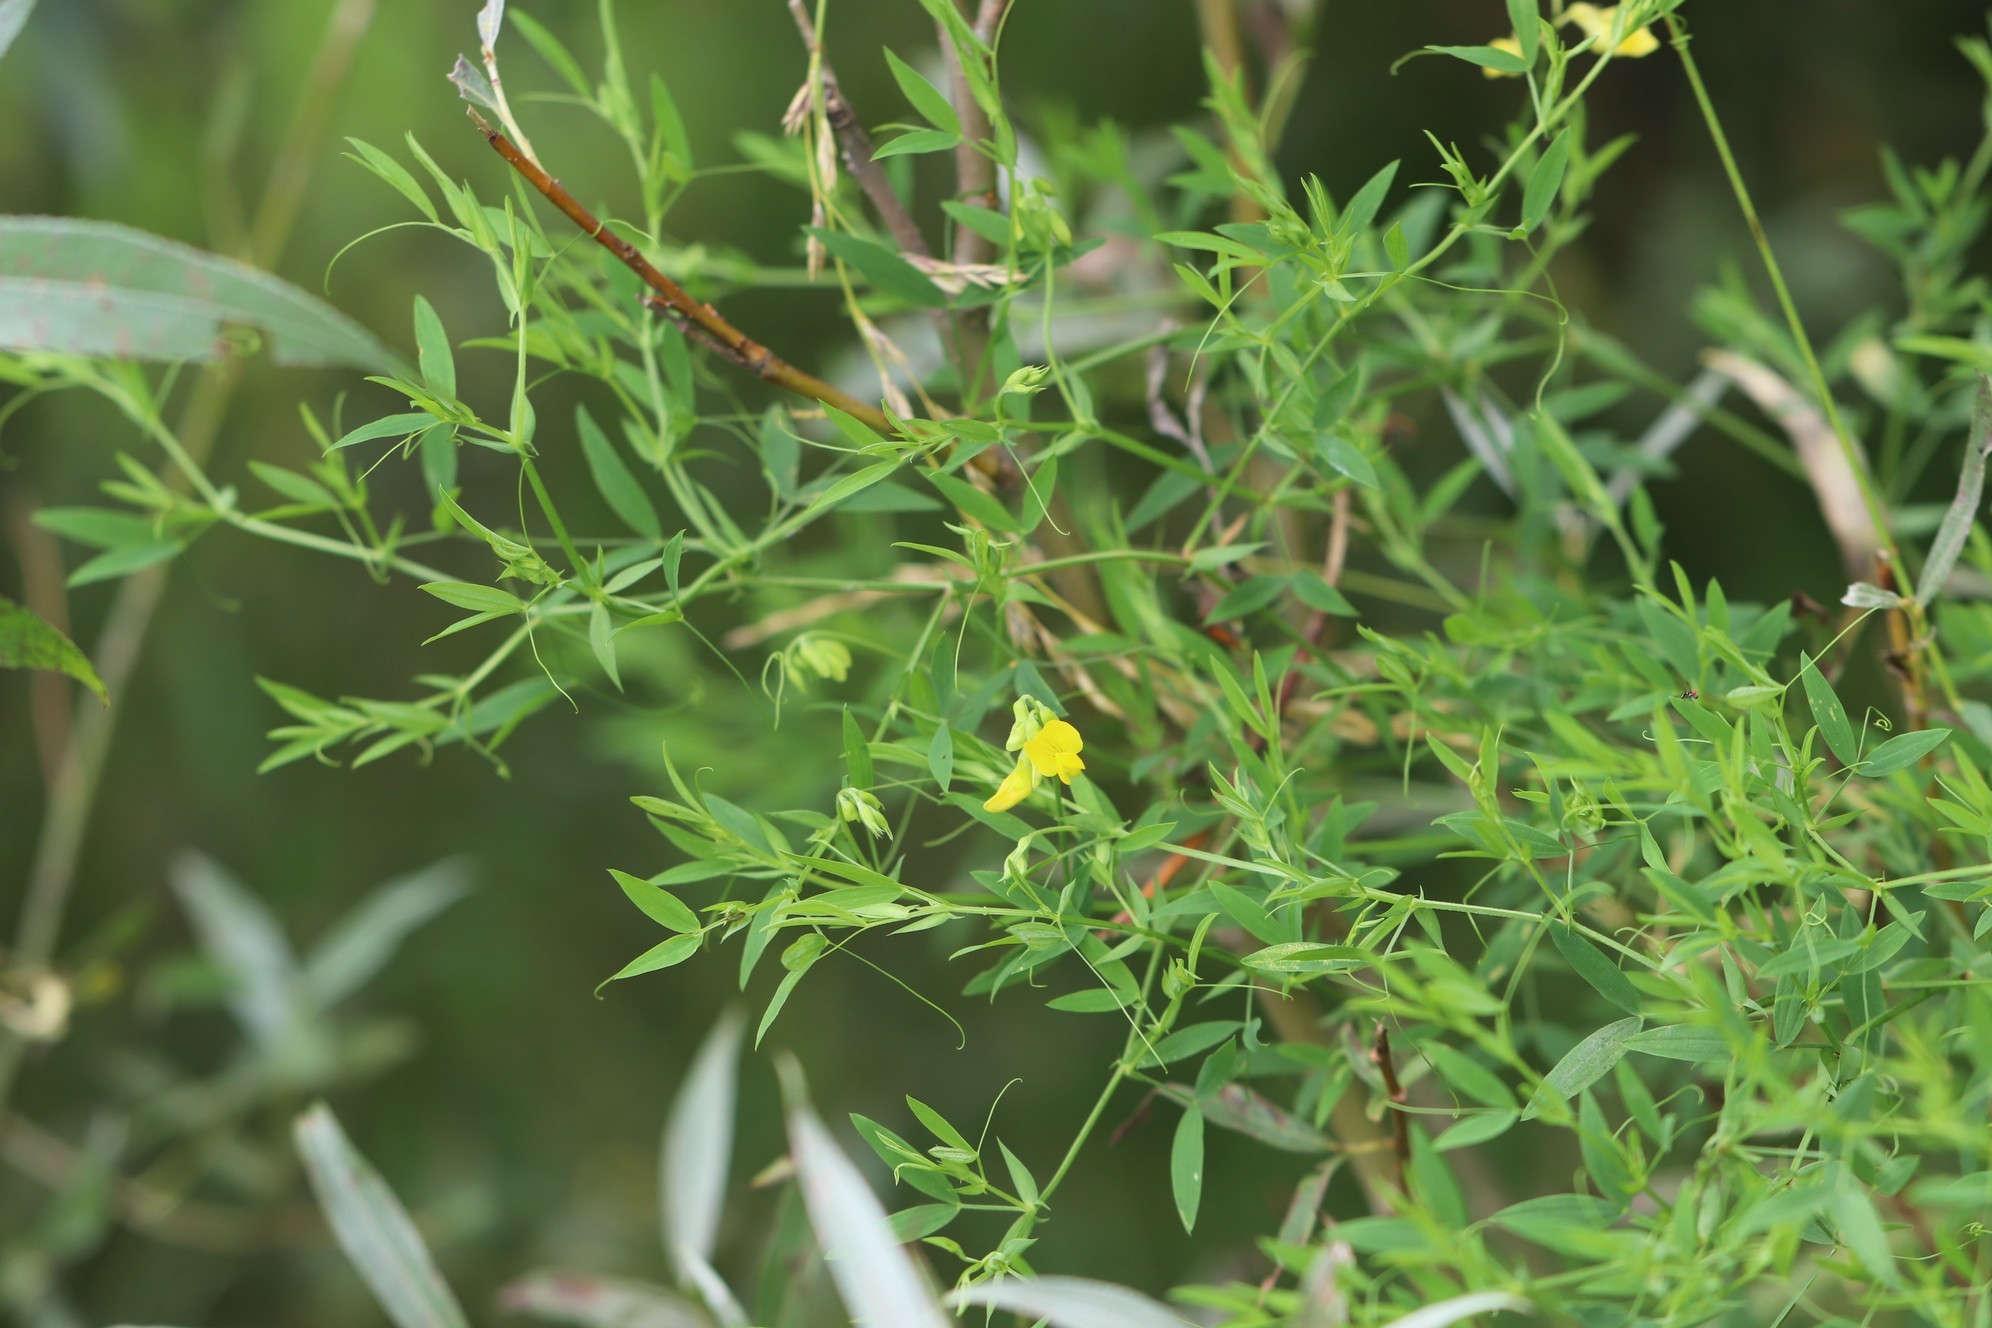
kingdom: Plantae
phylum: Tracheophyta
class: Magnoliopsida
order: Fabales
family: Fabaceae
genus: Lathyrus
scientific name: Lathyrus pratensis
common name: Meadow vetchling
